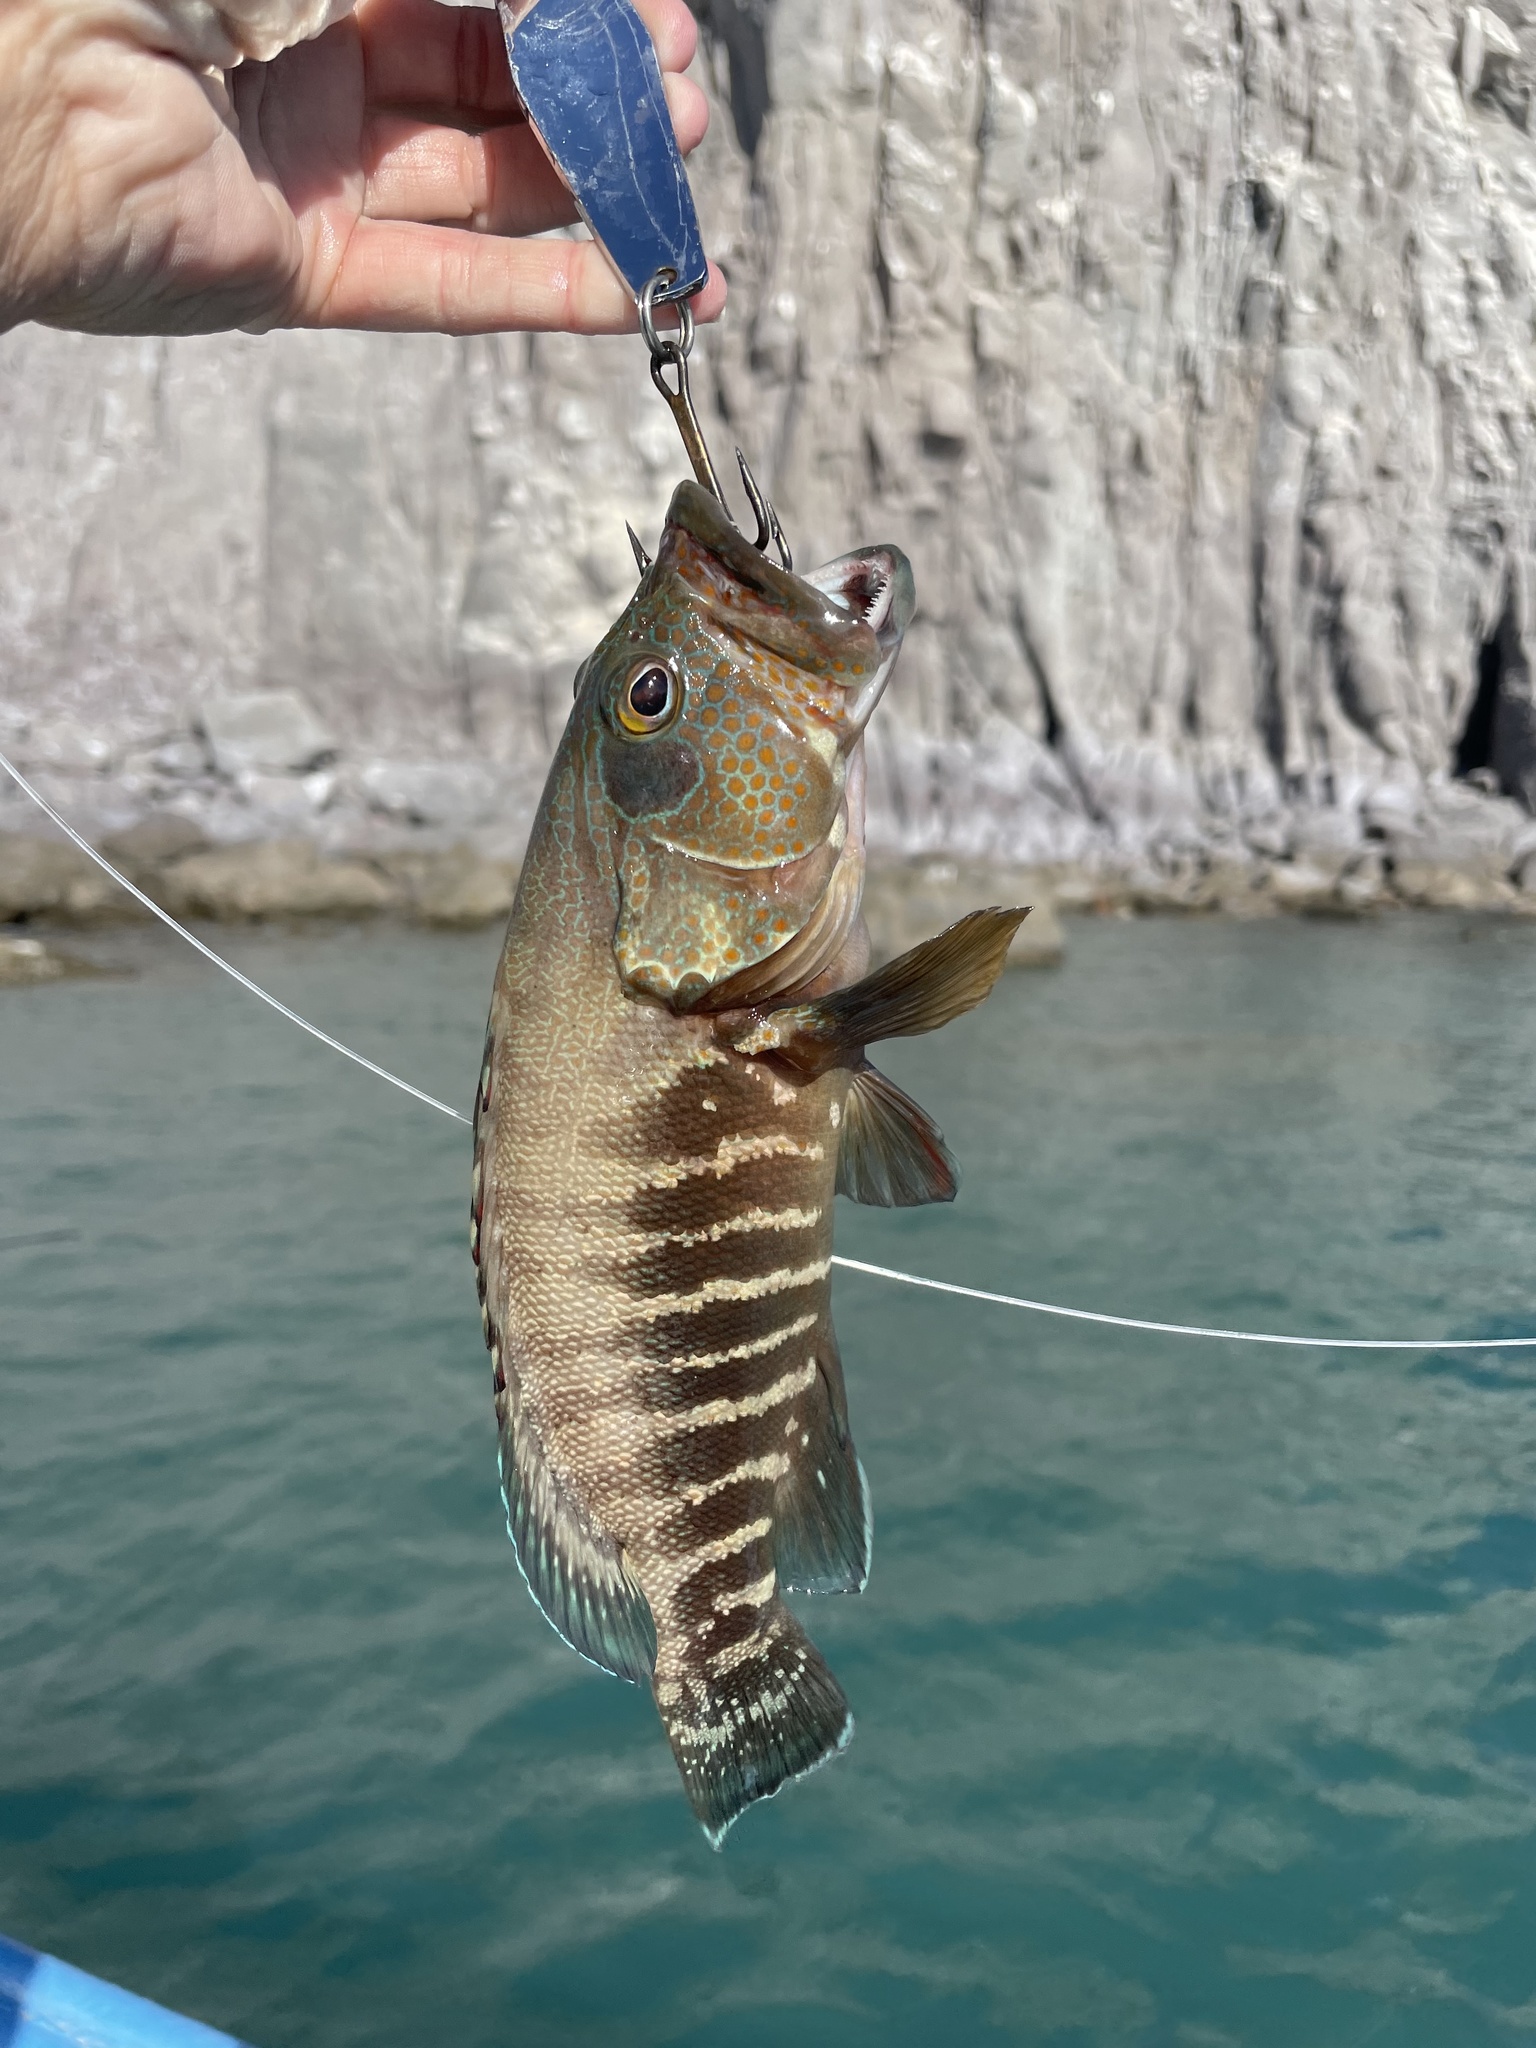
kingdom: Animalia
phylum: Chordata
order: Perciformes
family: Serranidae
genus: Cephalopholis
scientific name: Cephalopholis panamensis
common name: Pacific graysby
